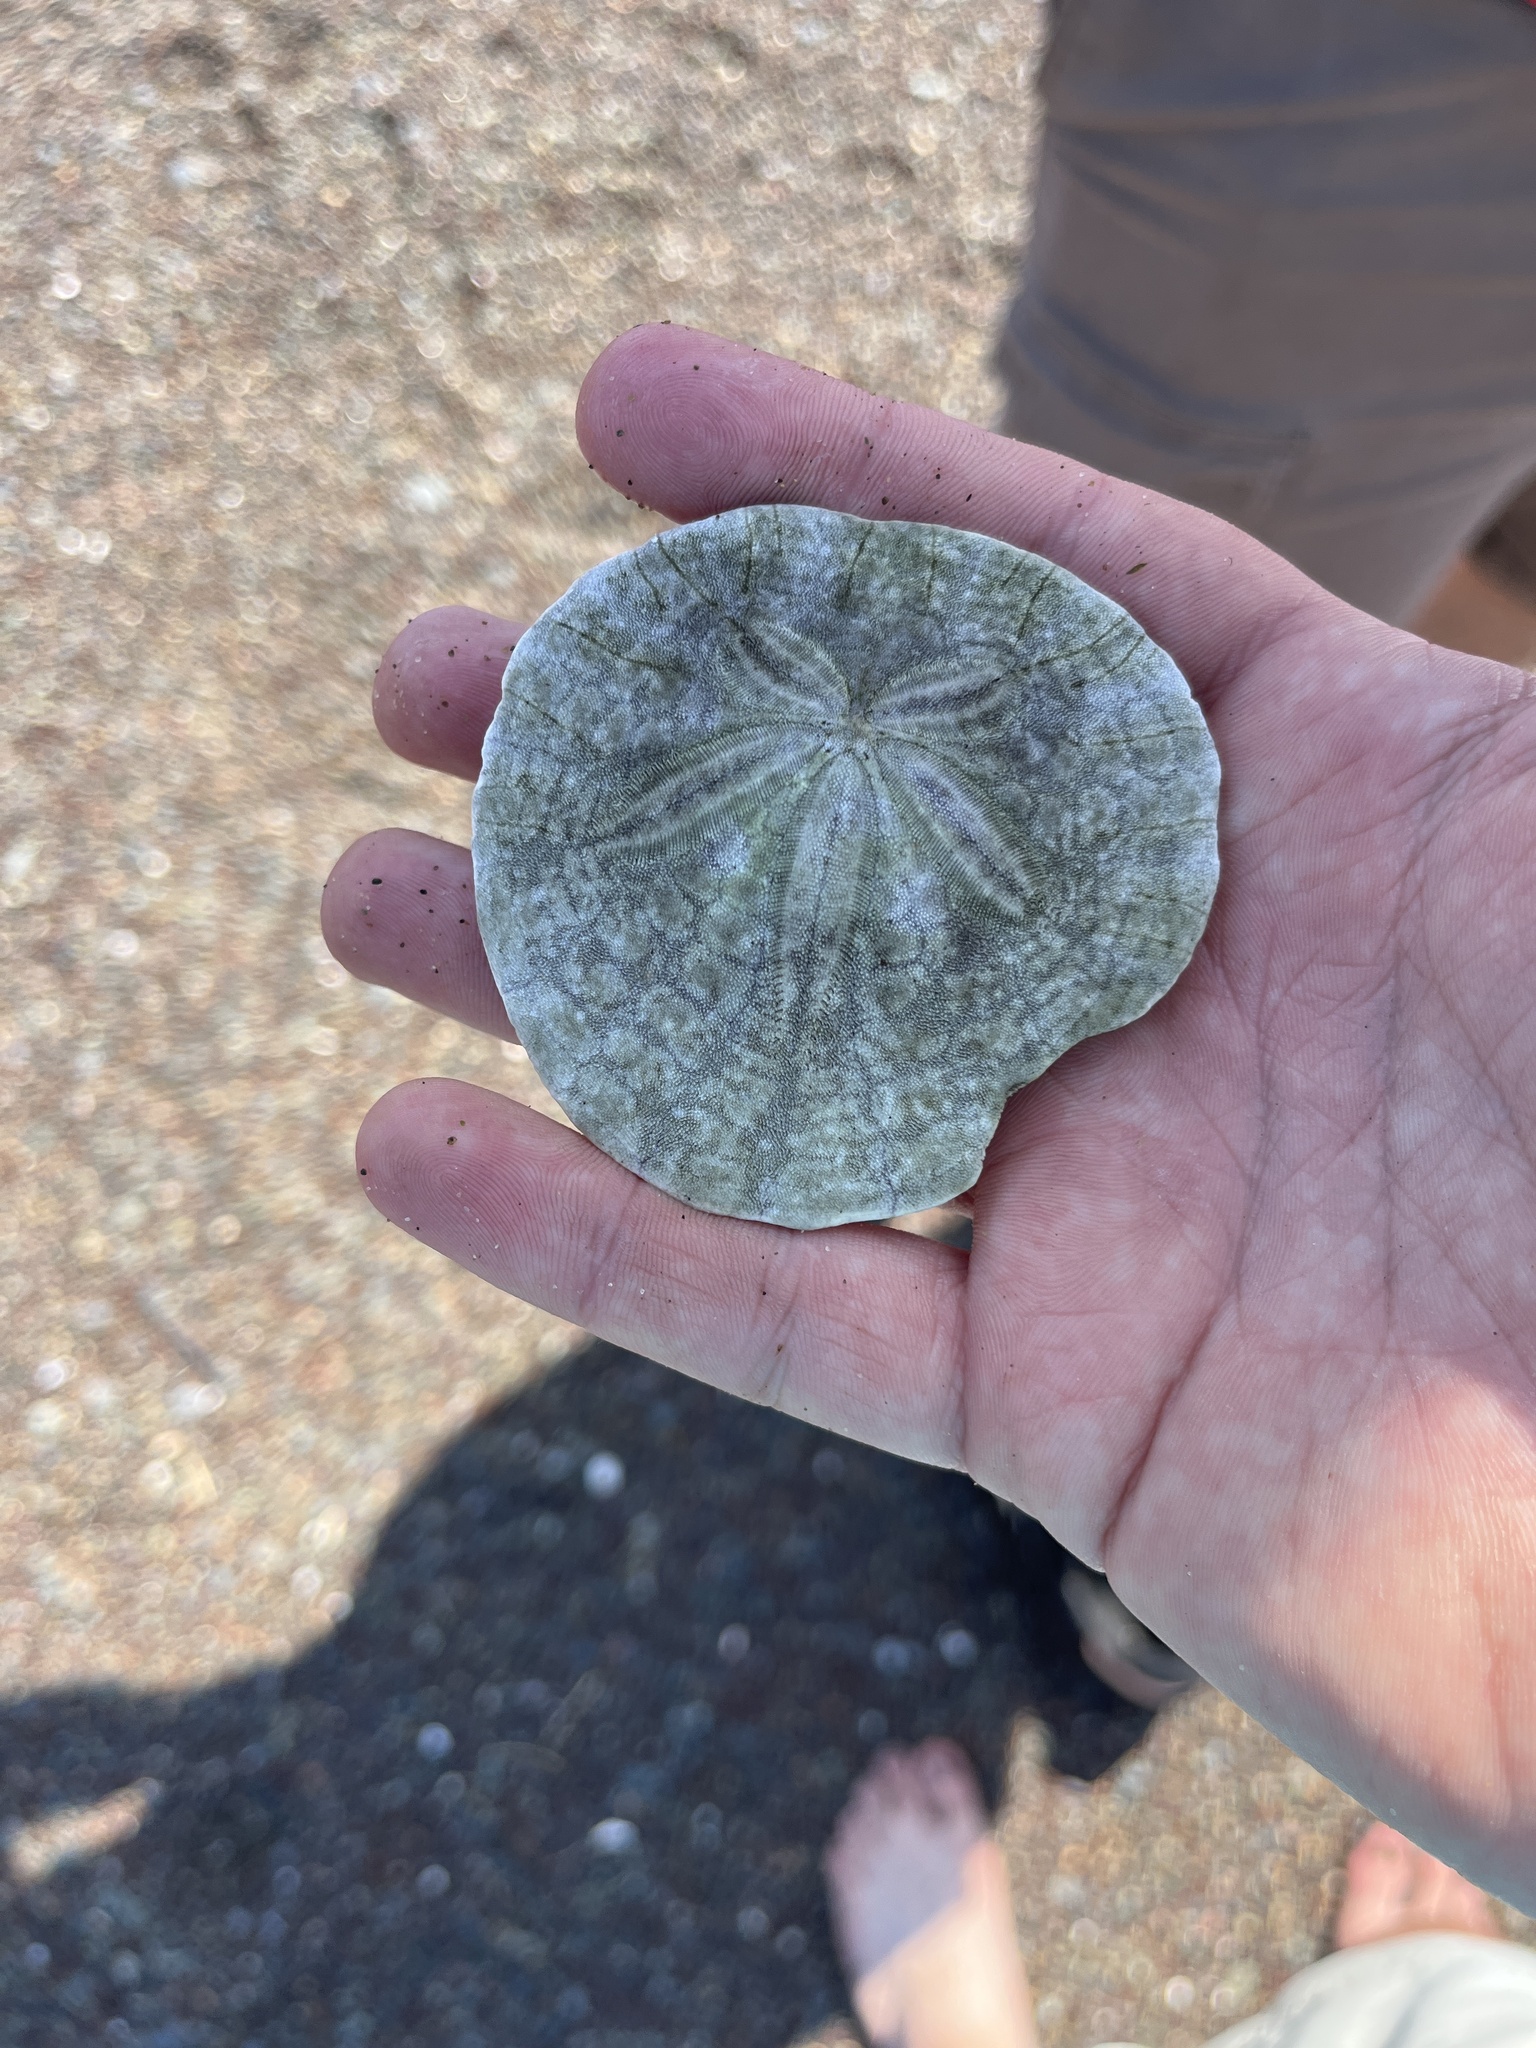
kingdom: Animalia
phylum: Echinodermata
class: Echinoidea
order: Echinolampadacea
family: Dendrasteridae
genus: Dendraster
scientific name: Dendraster excentricus
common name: Eccentric sand dollar sea urchin
